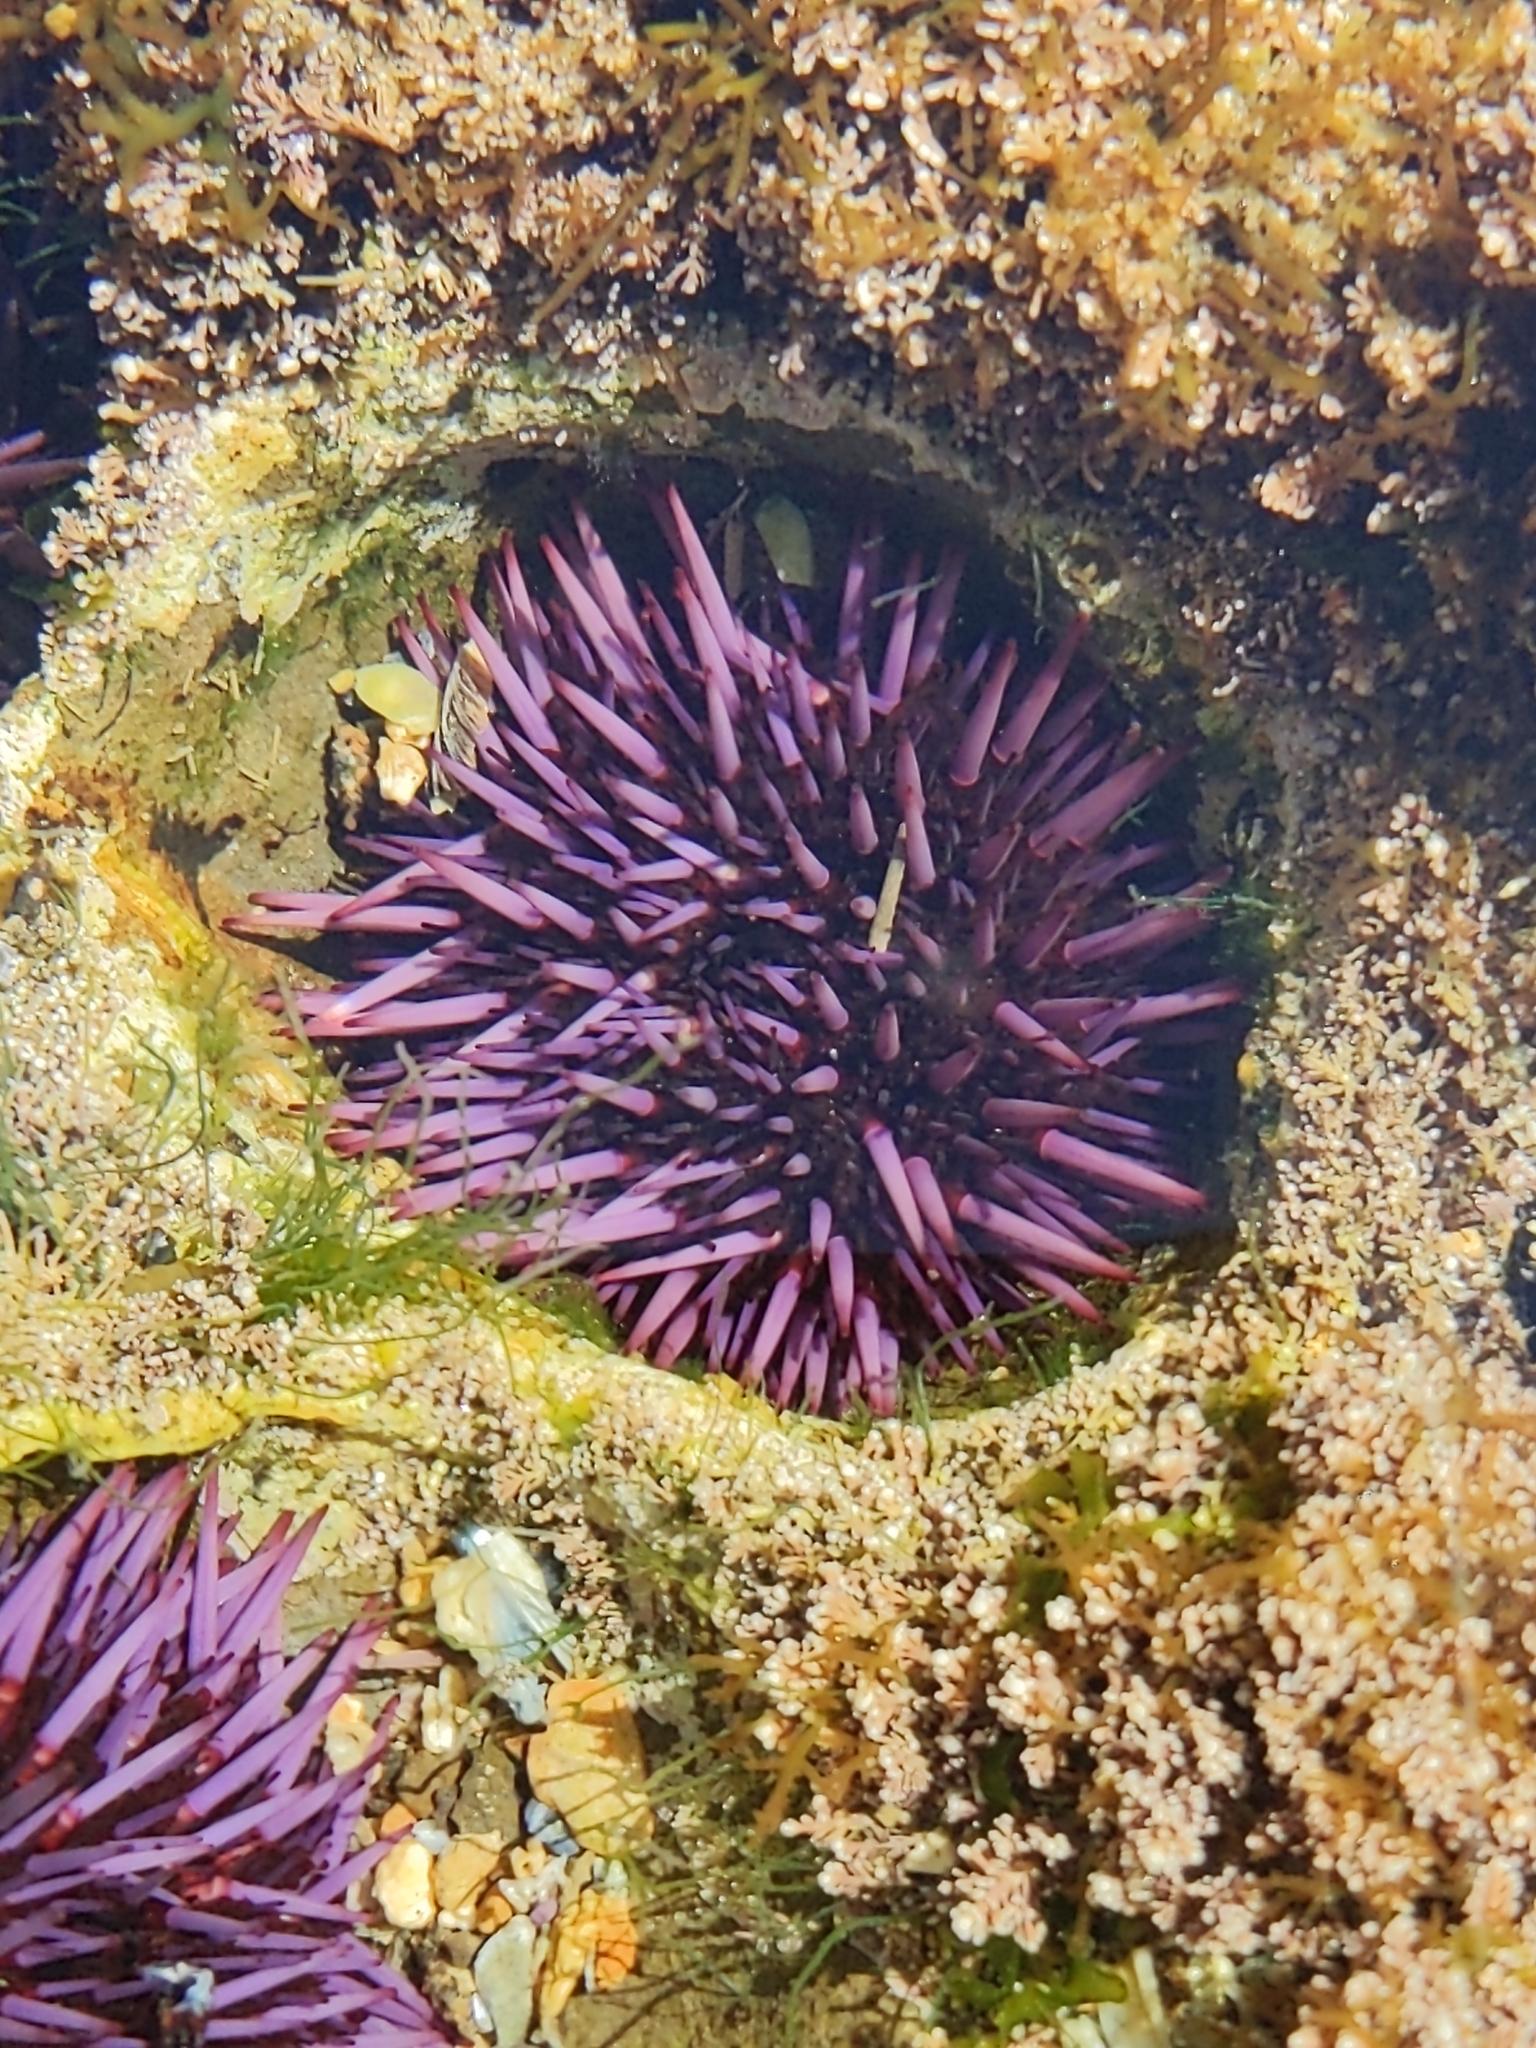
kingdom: Animalia
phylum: Echinodermata
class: Echinoidea
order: Camarodonta
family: Strongylocentrotidae
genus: Strongylocentrotus
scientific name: Strongylocentrotus purpuratus
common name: Purple sea urchin
